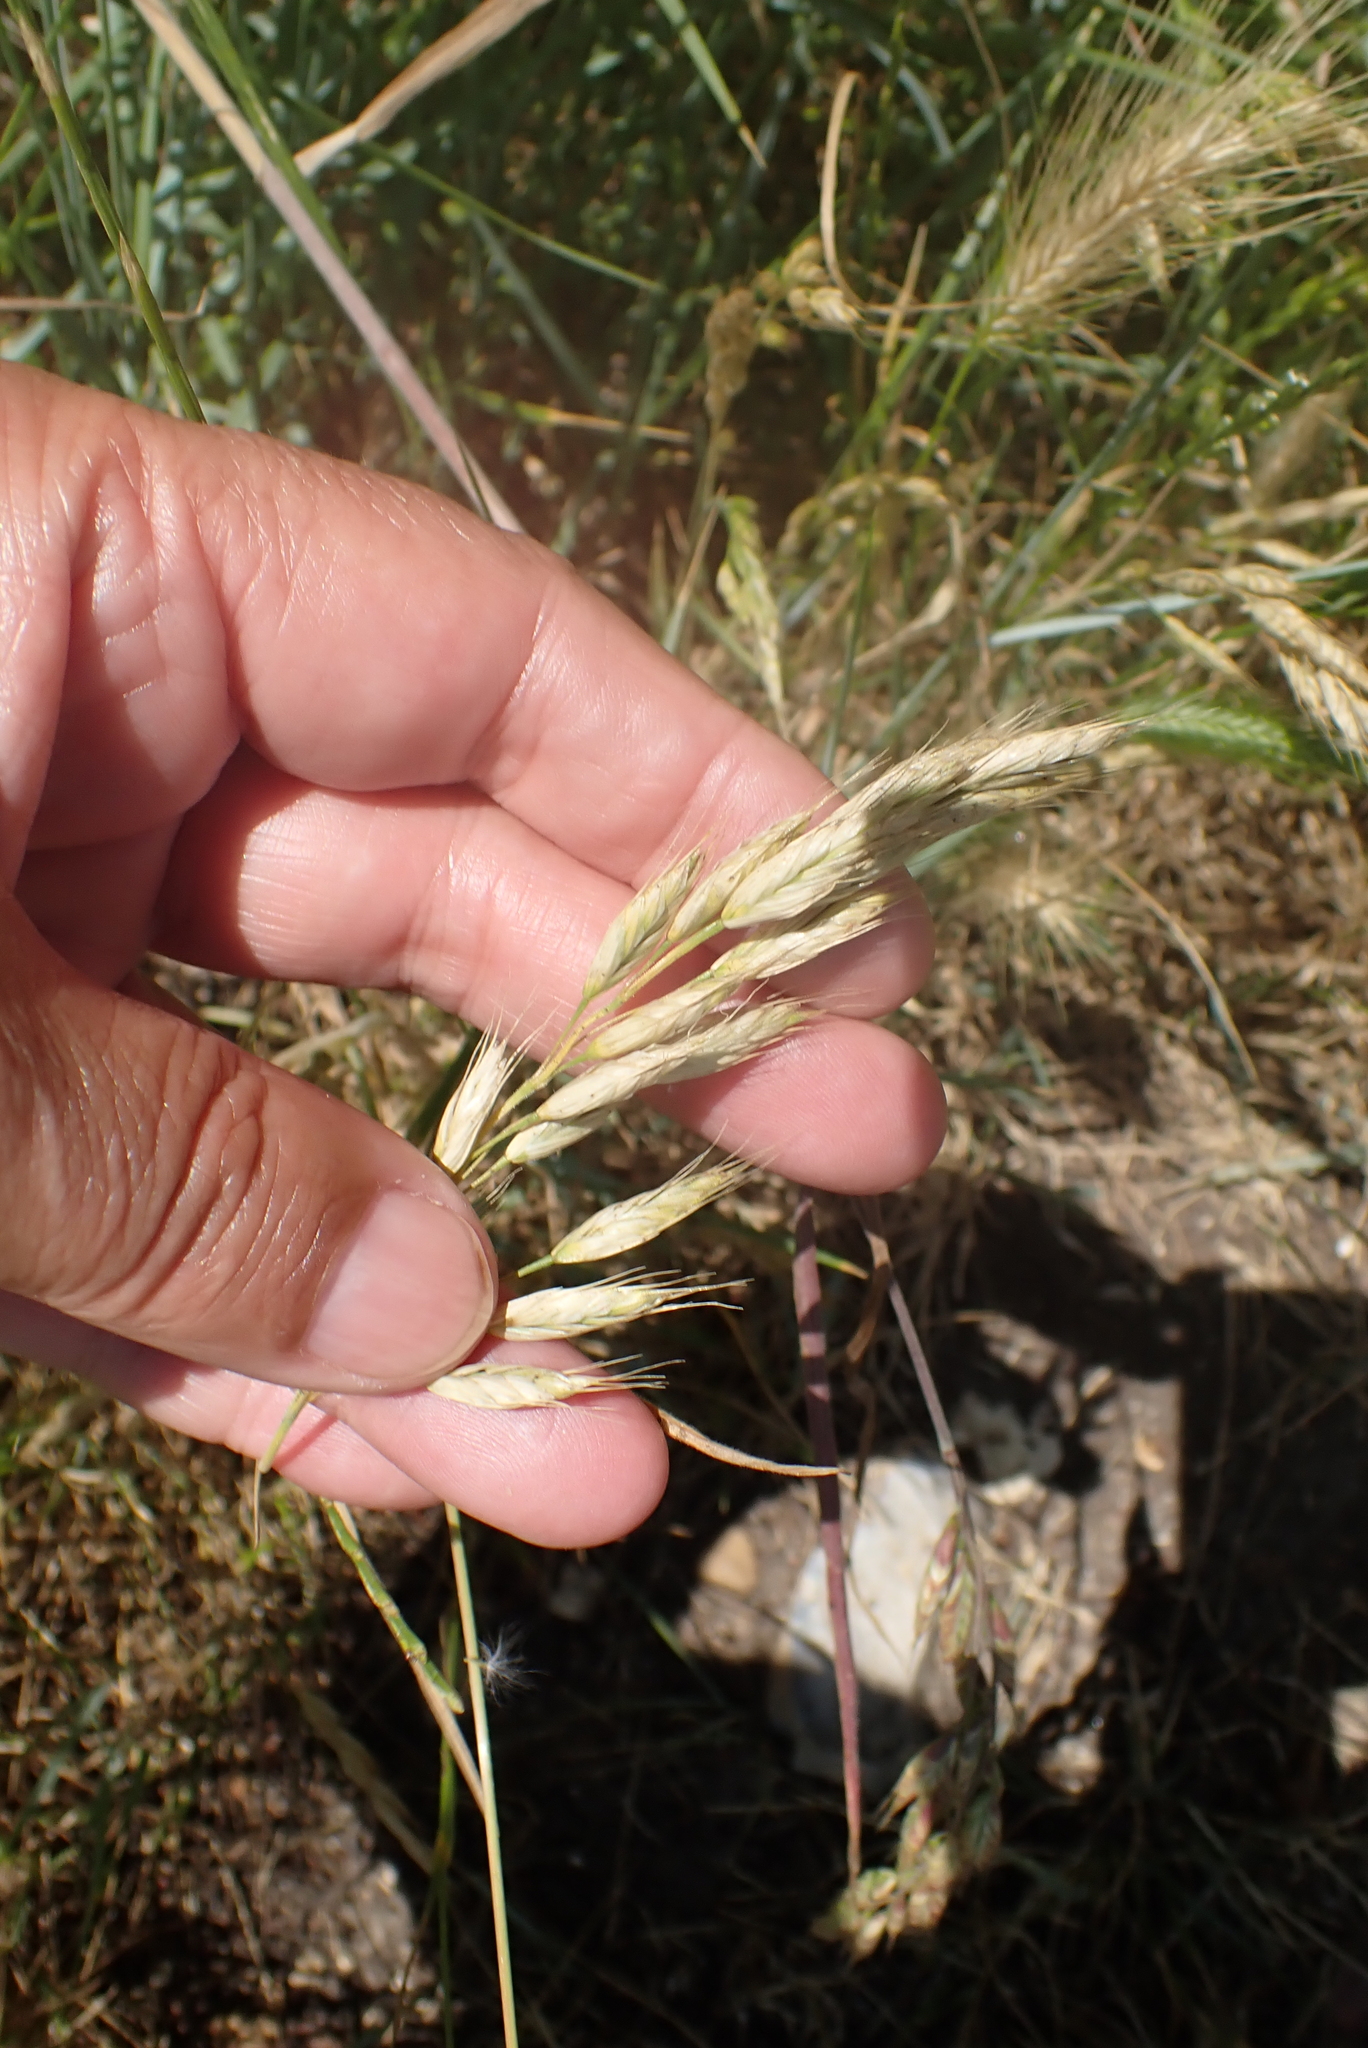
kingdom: Plantae
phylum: Tracheophyta
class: Liliopsida
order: Poales
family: Poaceae
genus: Bromus
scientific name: Bromus hordeaceus
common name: Soft brome
